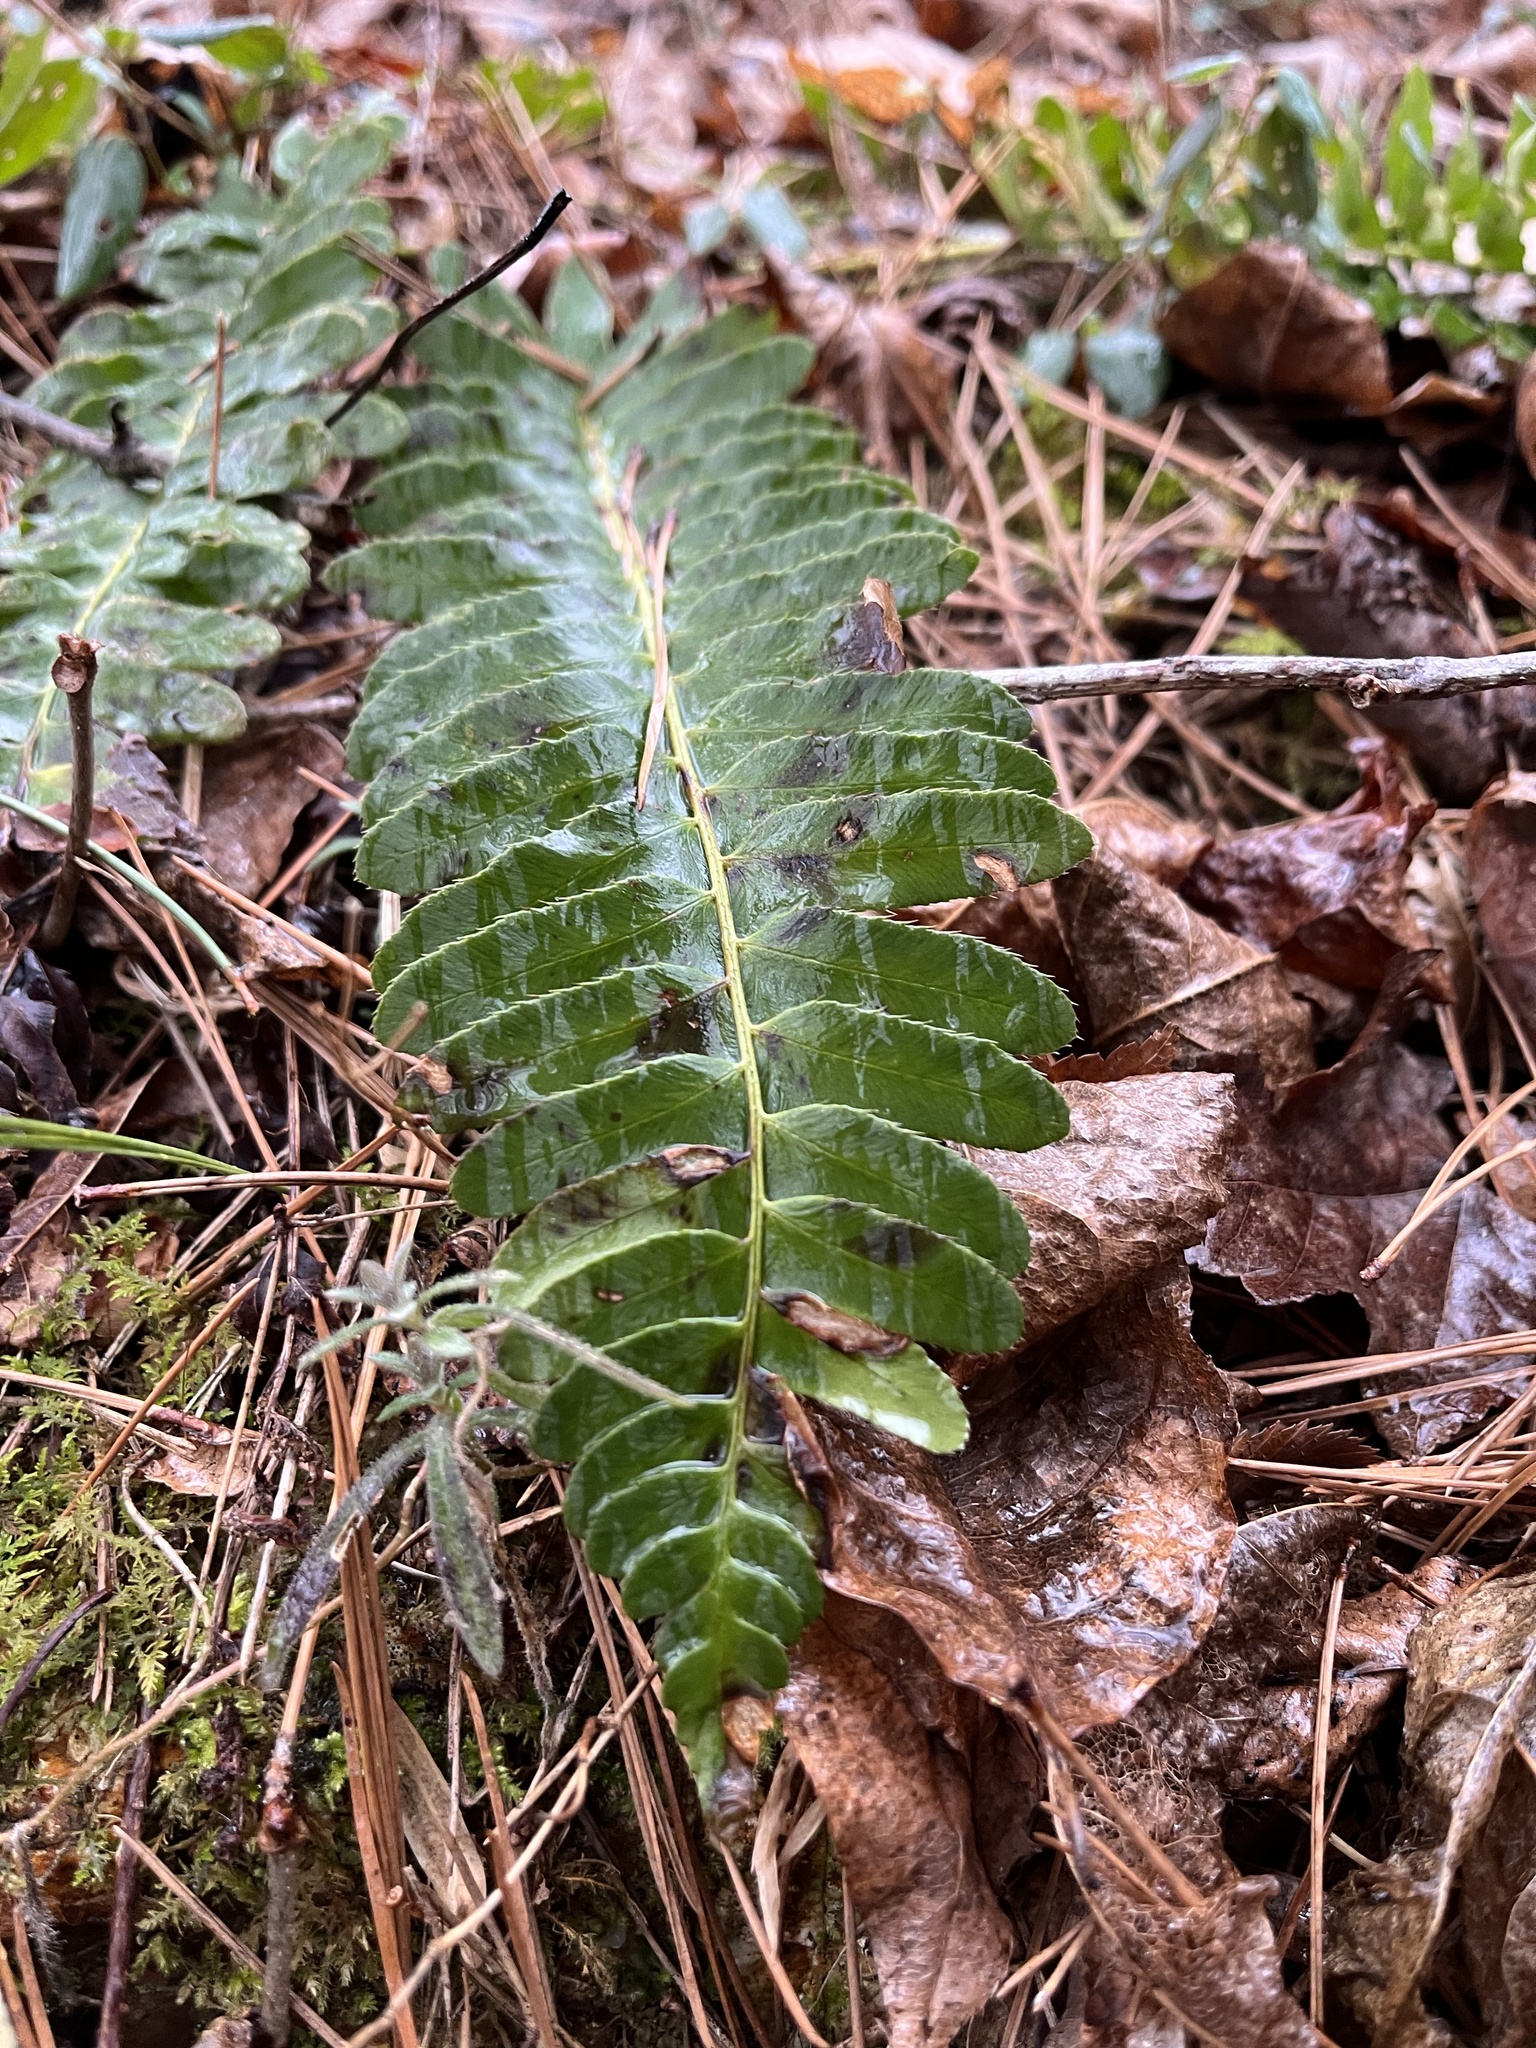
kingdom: Plantae
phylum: Tracheophyta
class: Polypodiopsida
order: Polypodiales
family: Dryopteridaceae
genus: Polystichum
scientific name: Polystichum acrostichoides
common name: Christmas fern
